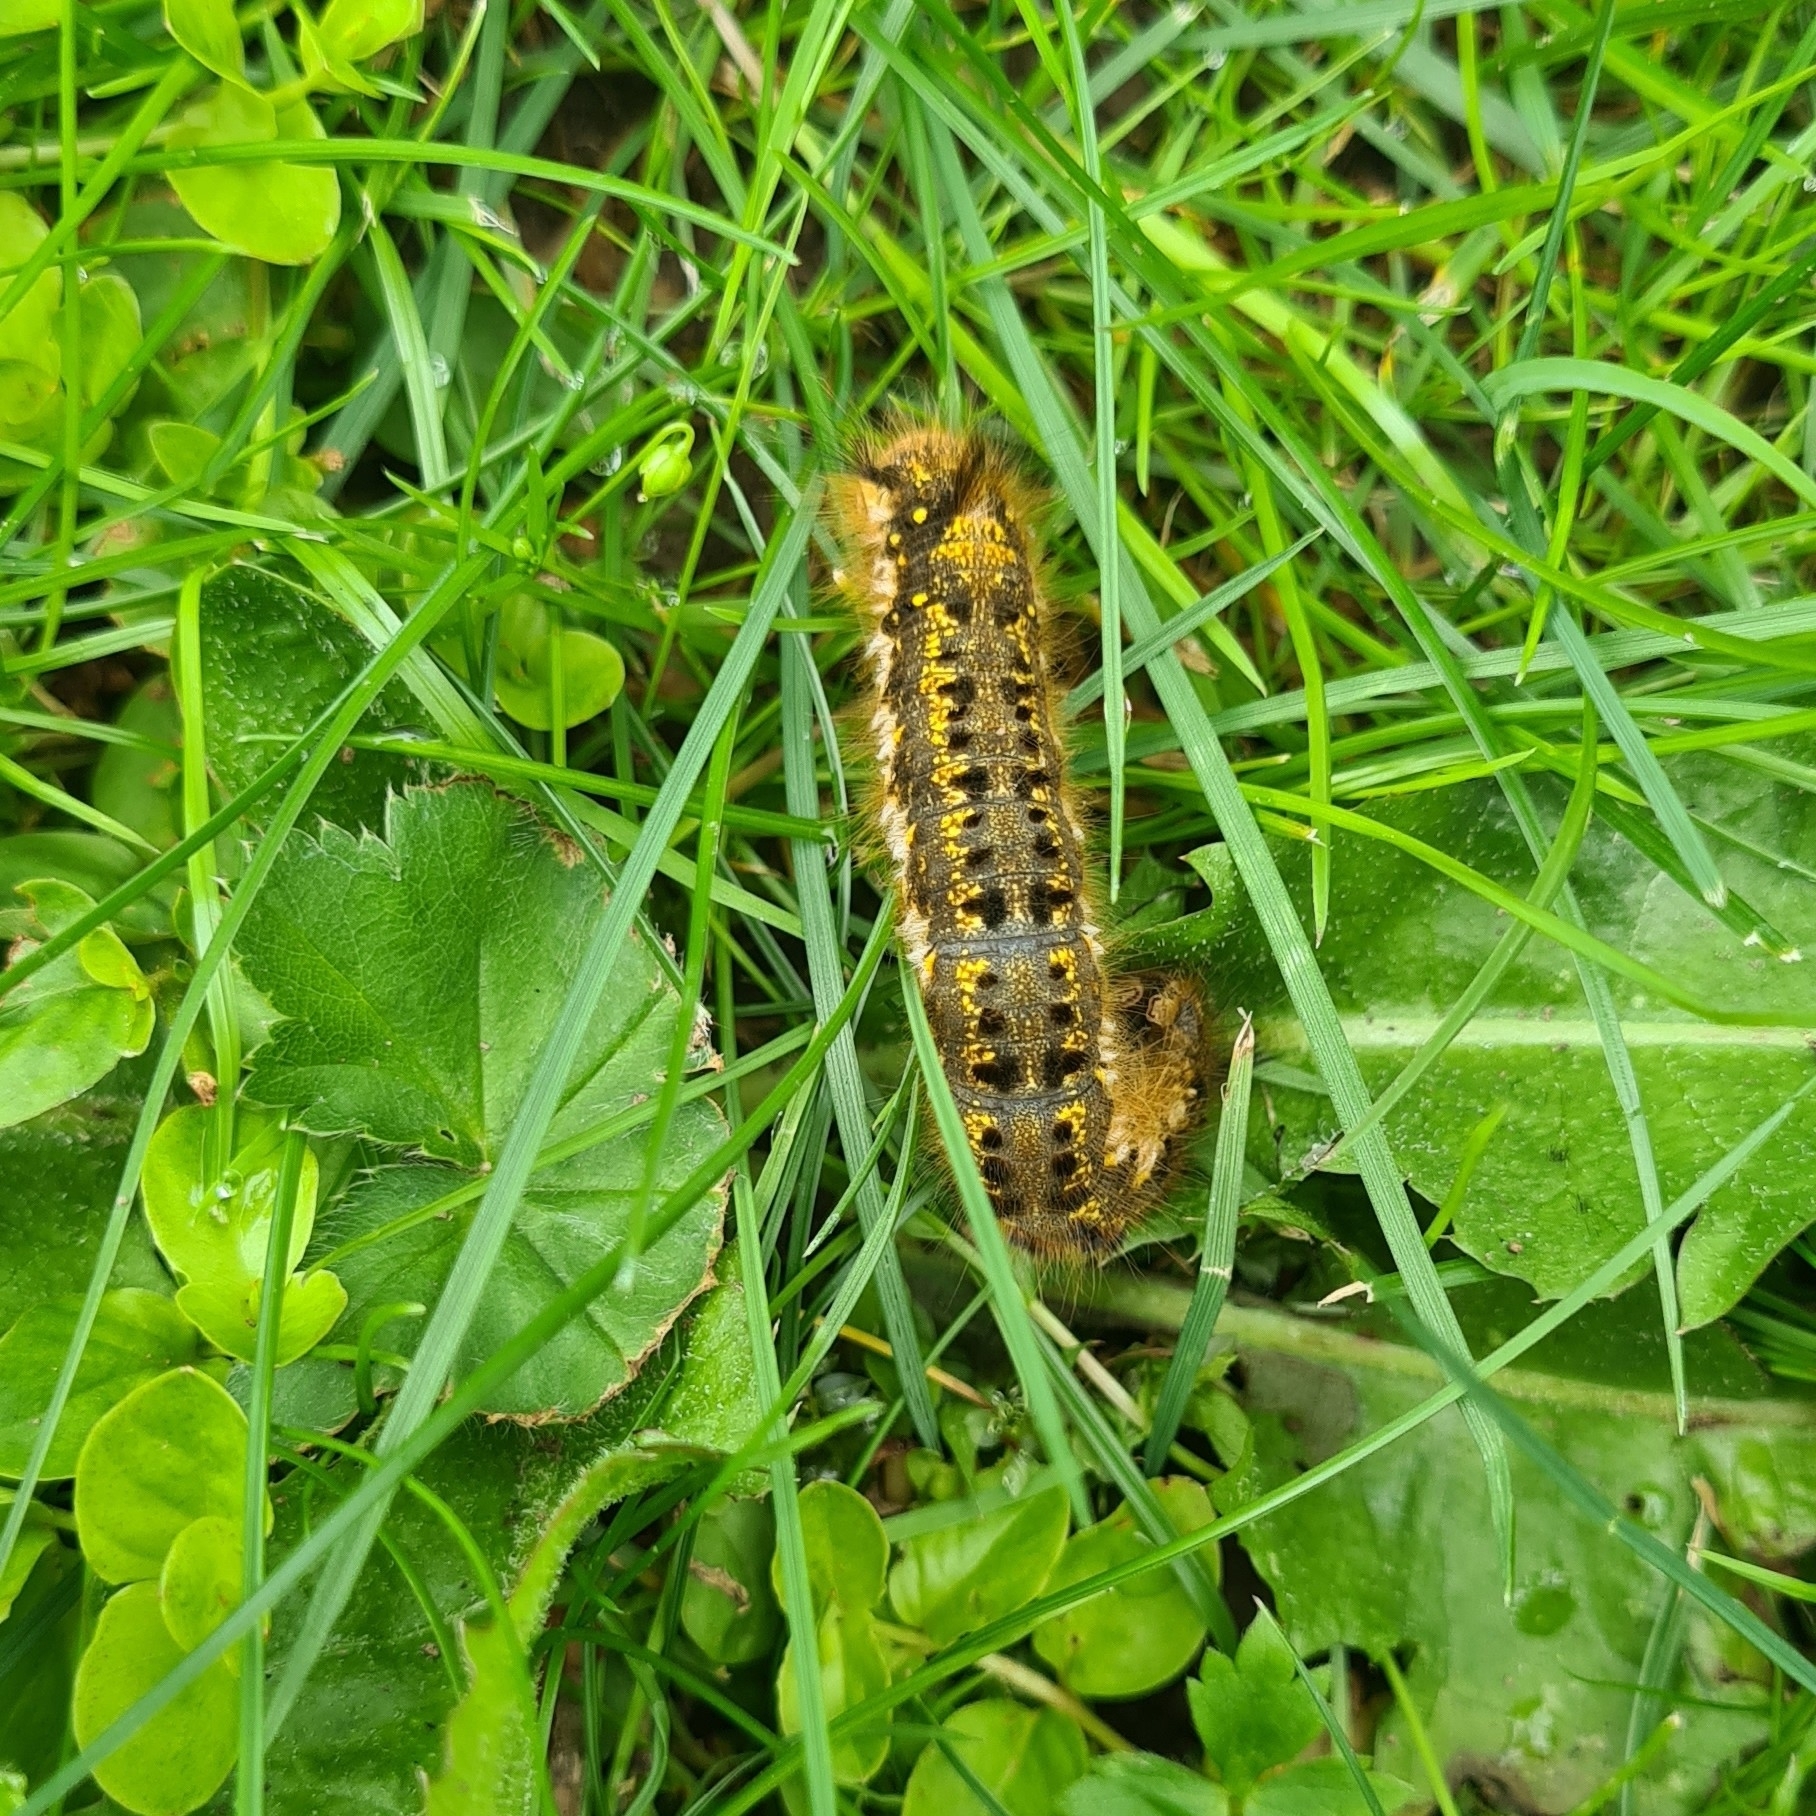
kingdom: Animalia
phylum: Arthropoda
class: Insecta
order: Lepidoptera
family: Lasiocampidae
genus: Euthrix
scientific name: Euthrix potatoria
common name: Drinker
